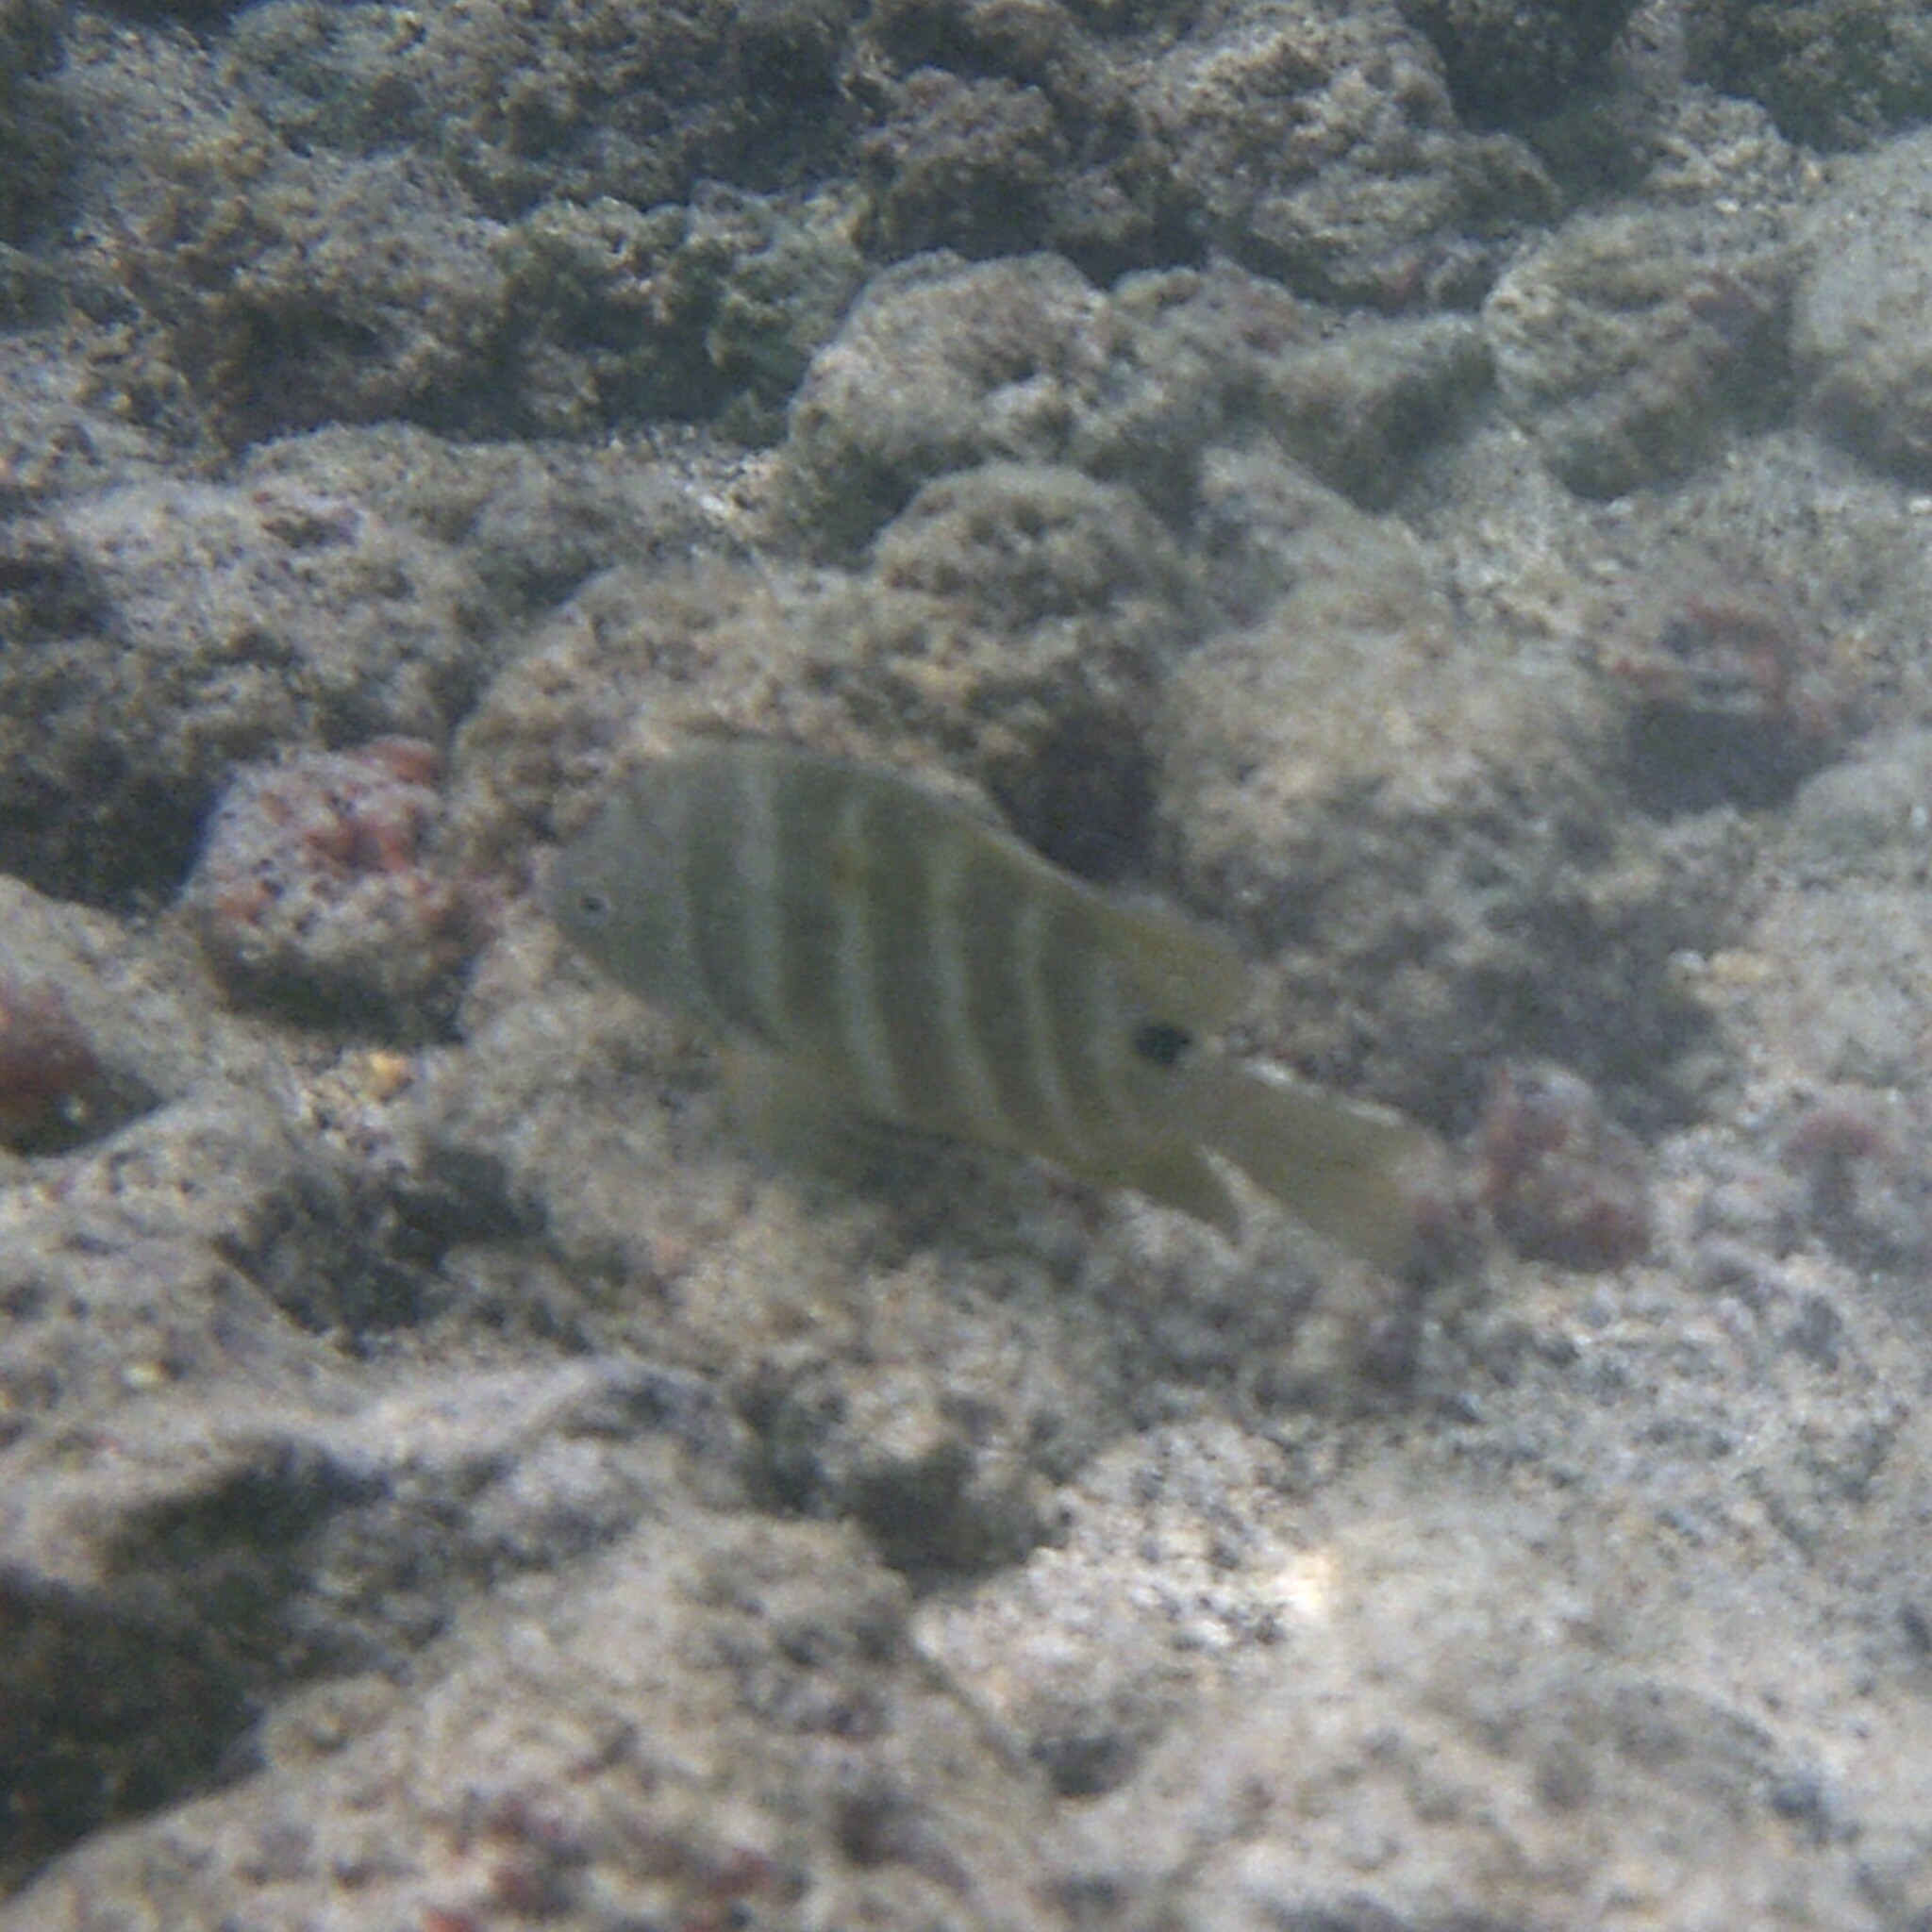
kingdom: Animalia
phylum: Chordata
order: Perciformes
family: Pomacentridae
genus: Abudefduf
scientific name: Abudefduf sordidus
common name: Blackspot sergeant
